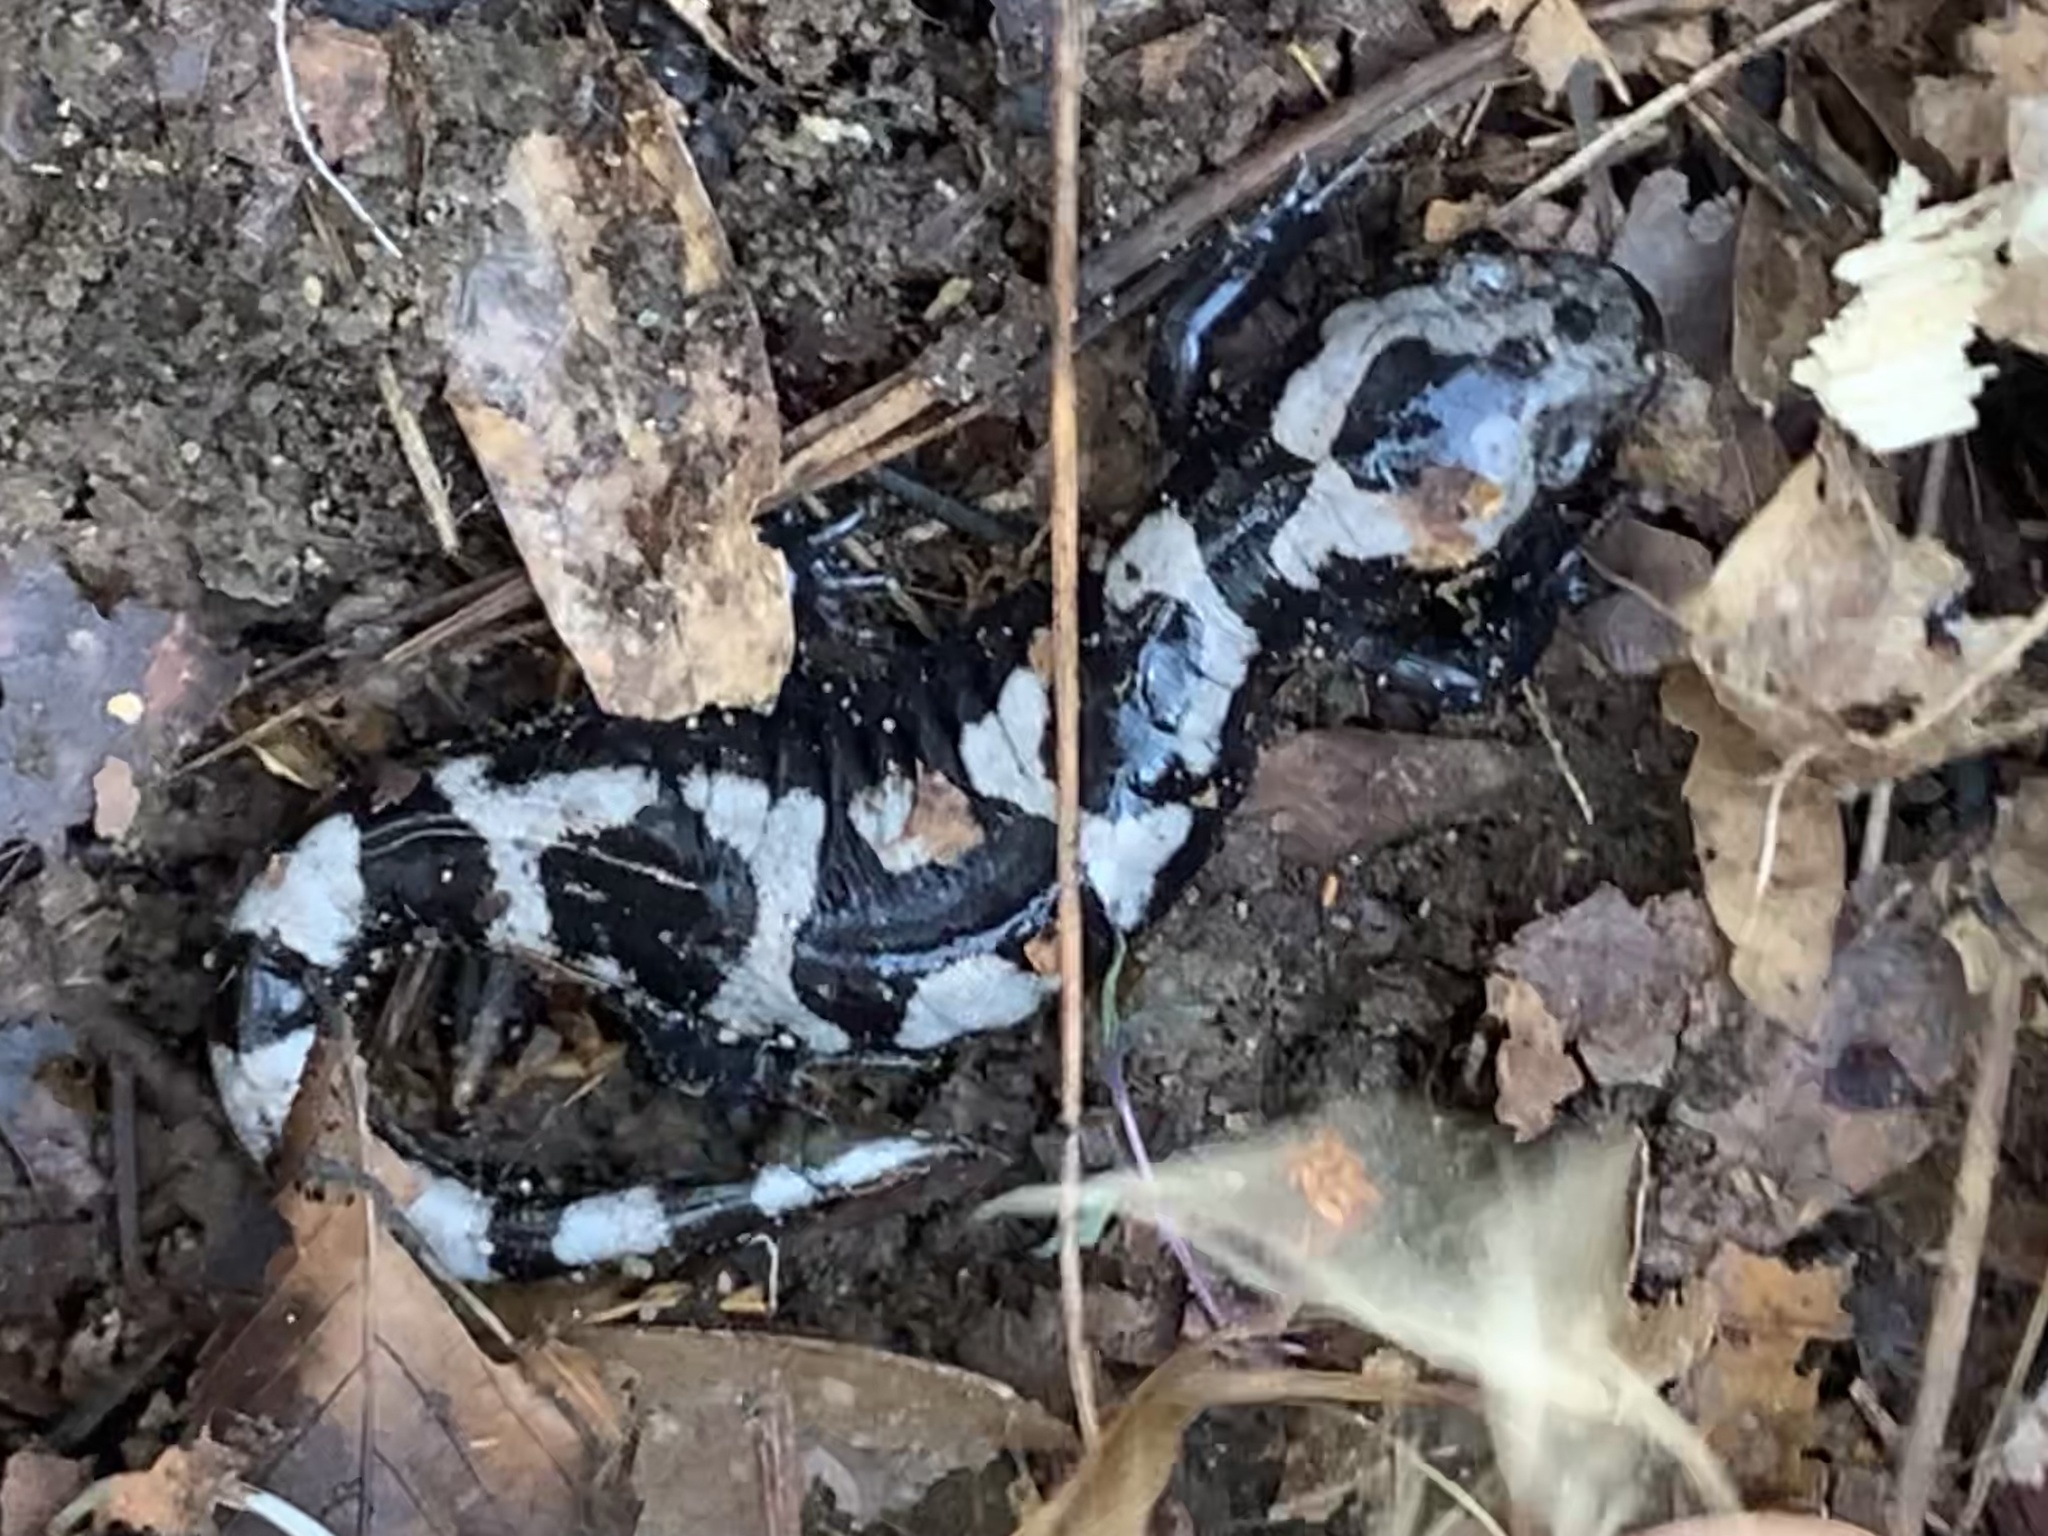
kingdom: Animalia
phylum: Chordata
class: Amphibia
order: Caudata
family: Ambystomatidae
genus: Ambystoma
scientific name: Ambystoma opacum
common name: Marbled salamander
